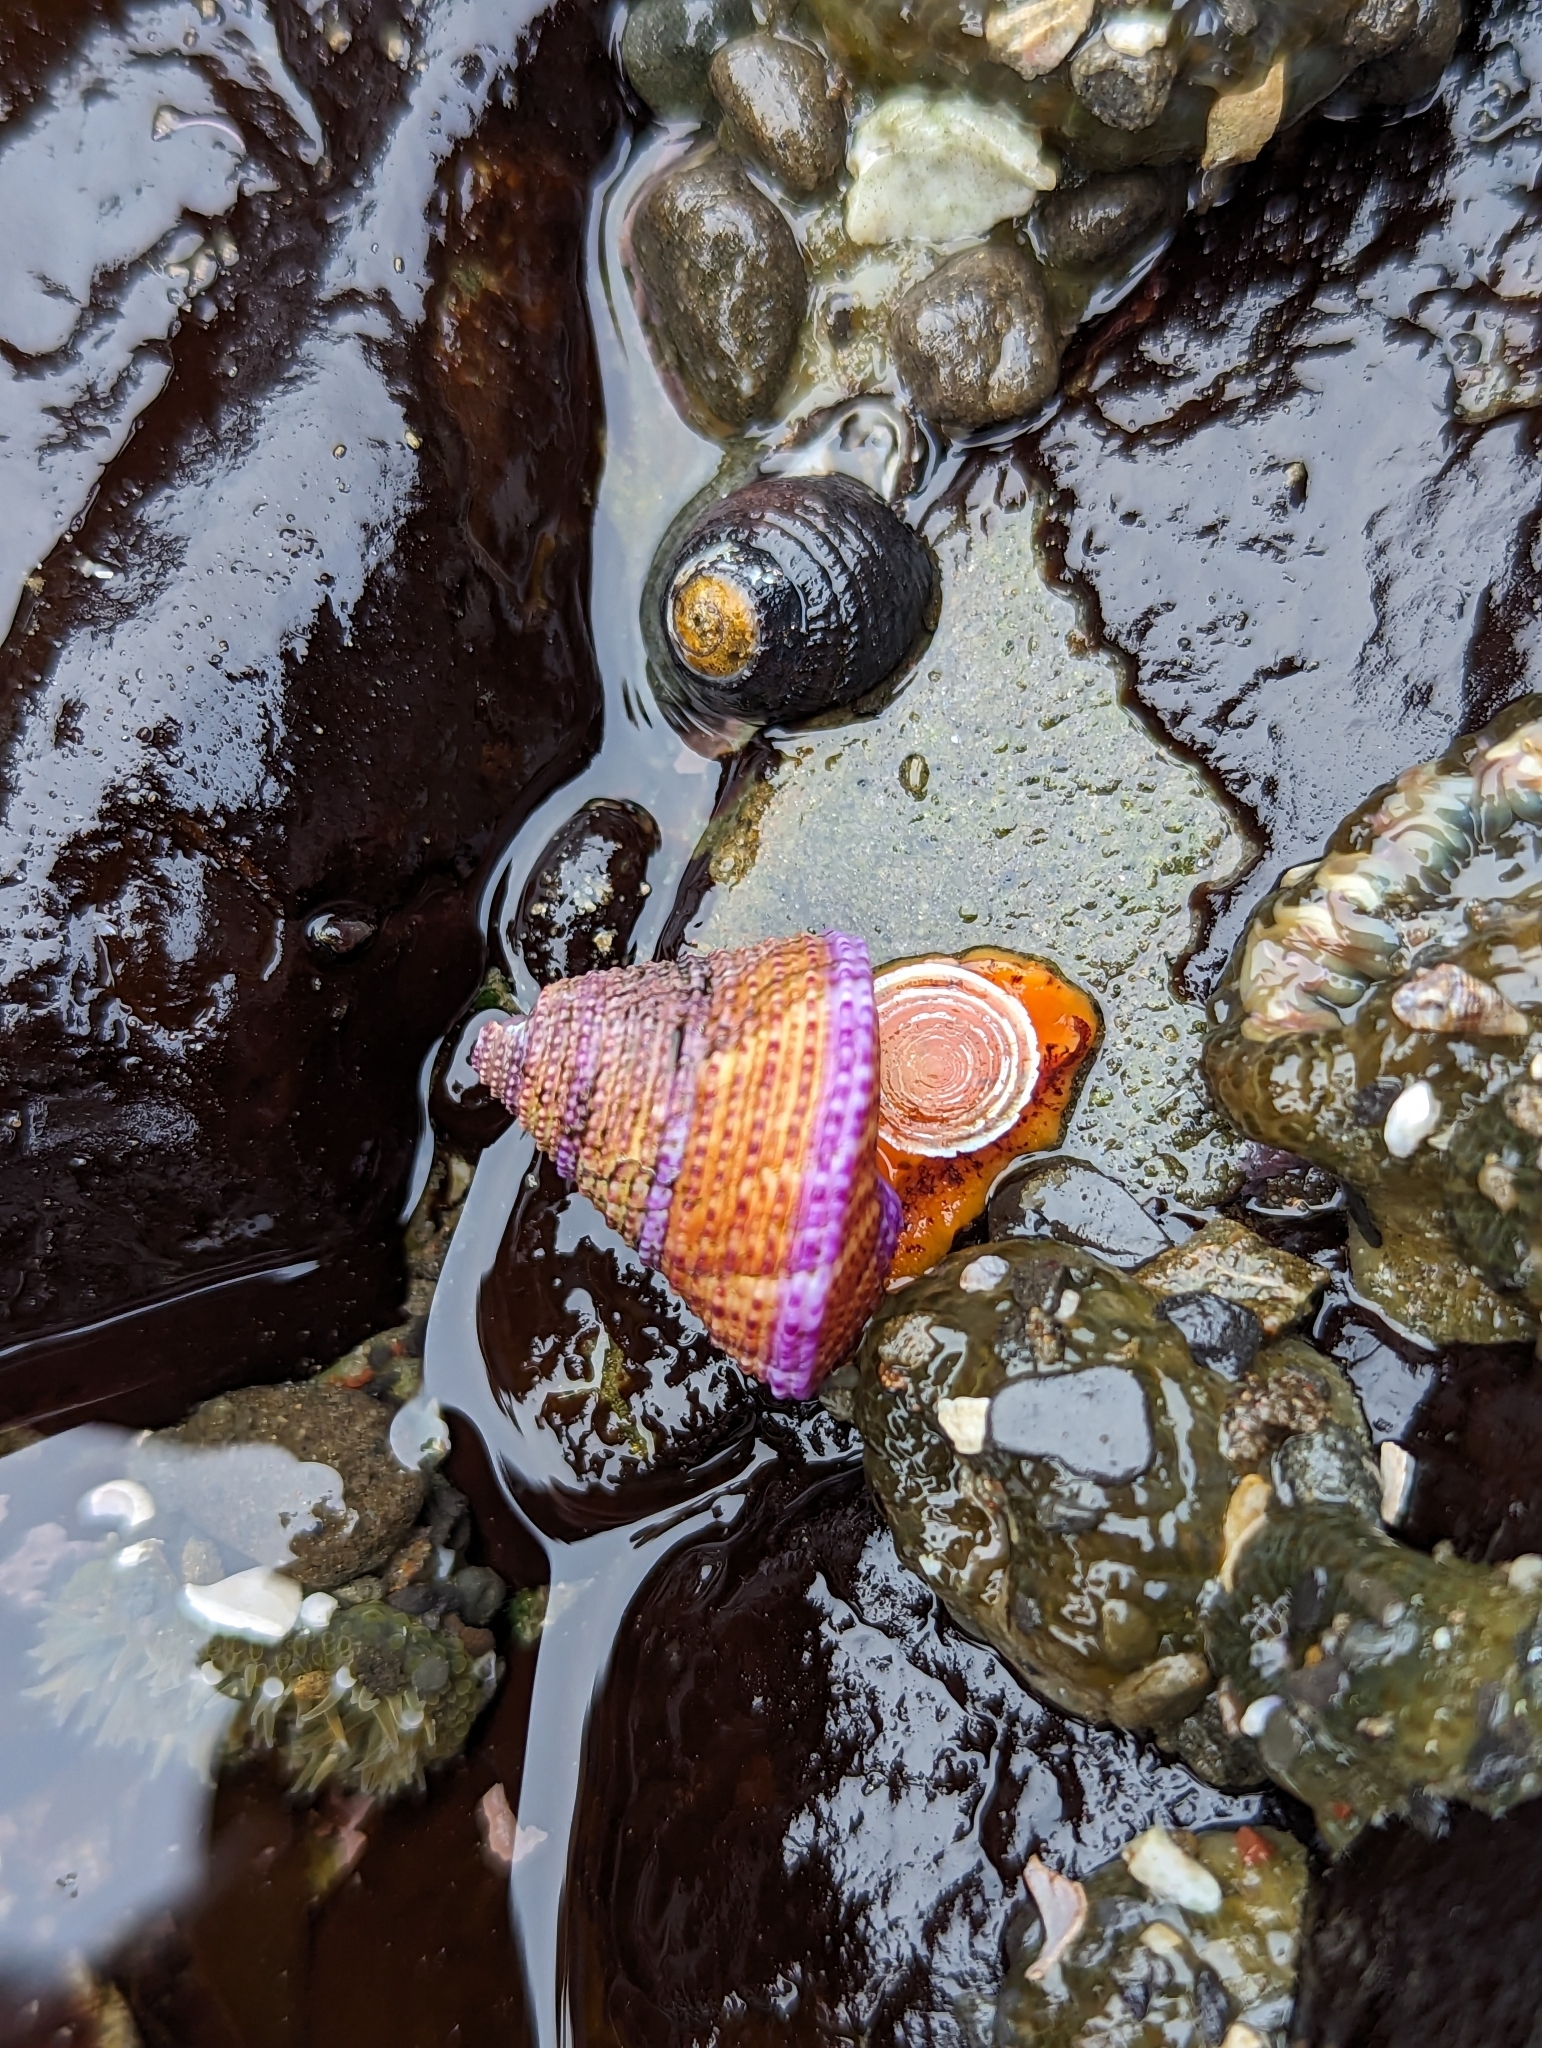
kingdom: Animalia
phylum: Mollusca
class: Gastropoda
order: Trochida
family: Calliostomatidae
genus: Calliostoma
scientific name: Calliostoma annulatum
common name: Blue-ring topsnail
